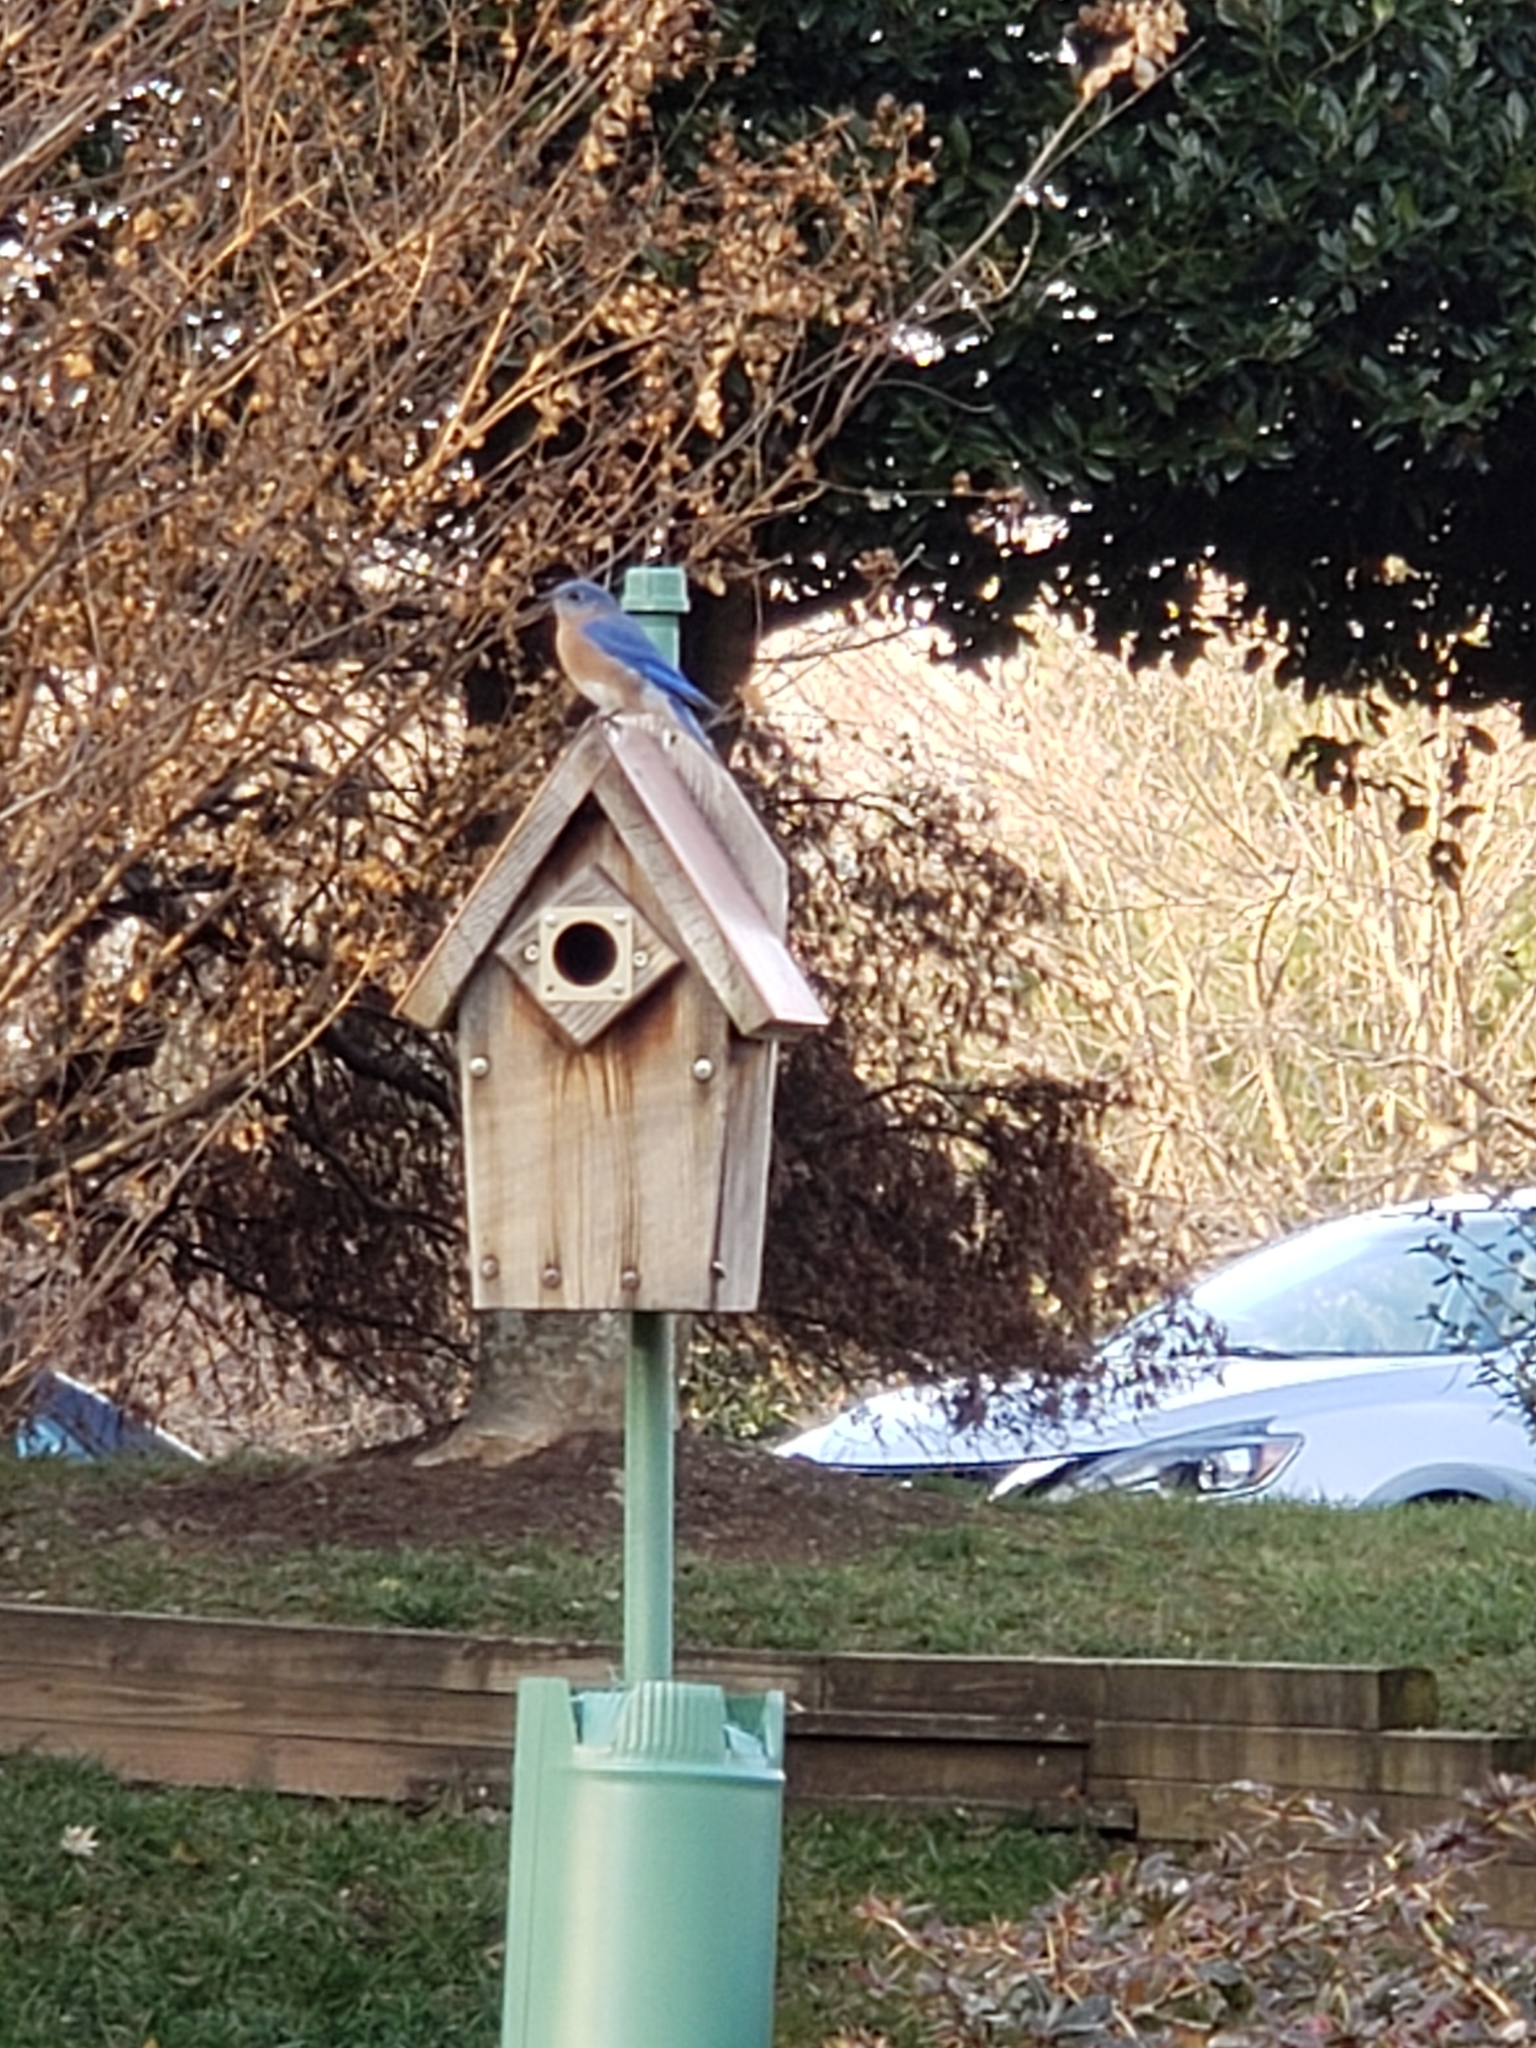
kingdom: Animalia
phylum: Chordata
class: Aves
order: Passeriformes
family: Turdidae
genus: Sialia
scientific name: Sialia sialis
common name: Eastern bluebird
